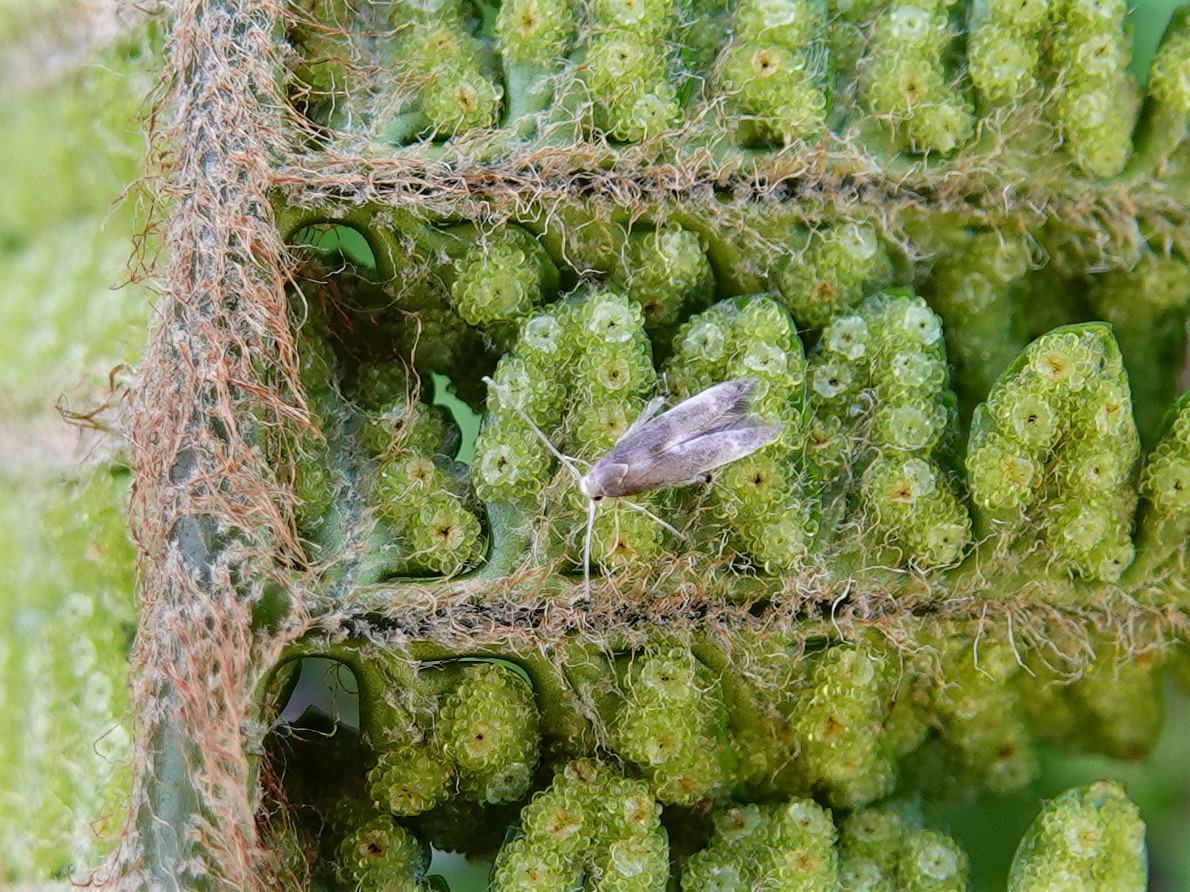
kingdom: Plantae
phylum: Tracheophyta
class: Polypodiopsida
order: Polypodiales
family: Dryopteridaceae
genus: Polystichum
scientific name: Polystichum wawranum
